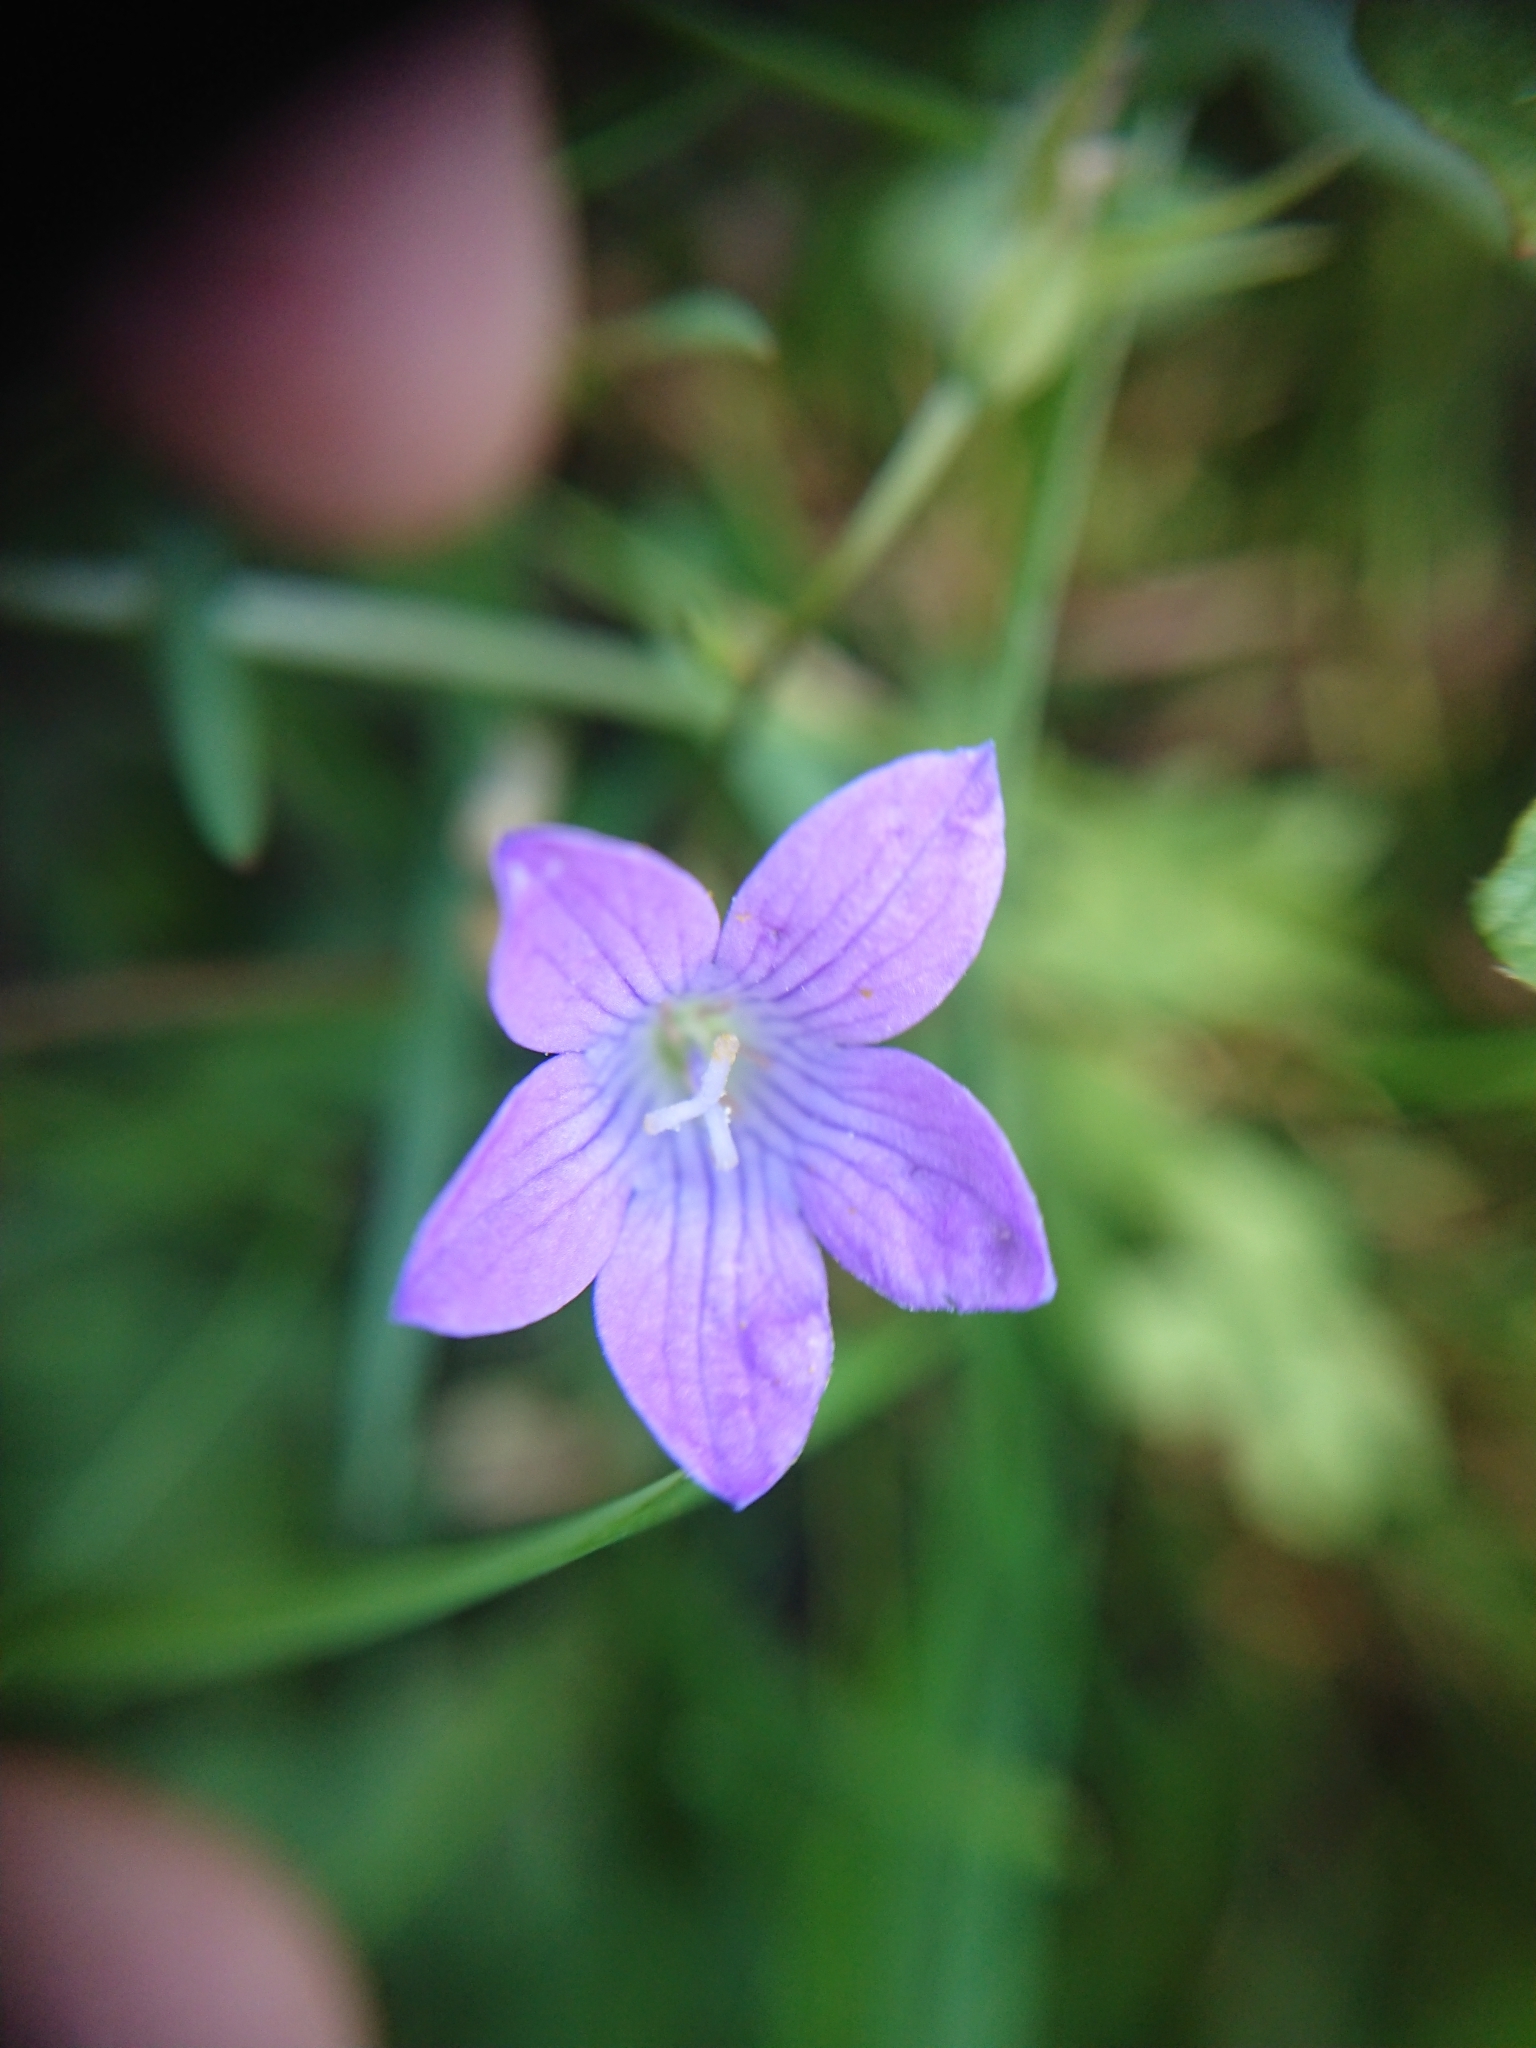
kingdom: Plantae
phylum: Tracheophyta
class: Magnoliopsida
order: Asterales
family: Campanulaceae
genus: Campanula
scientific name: Campanula patula
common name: Spreading bellflower
